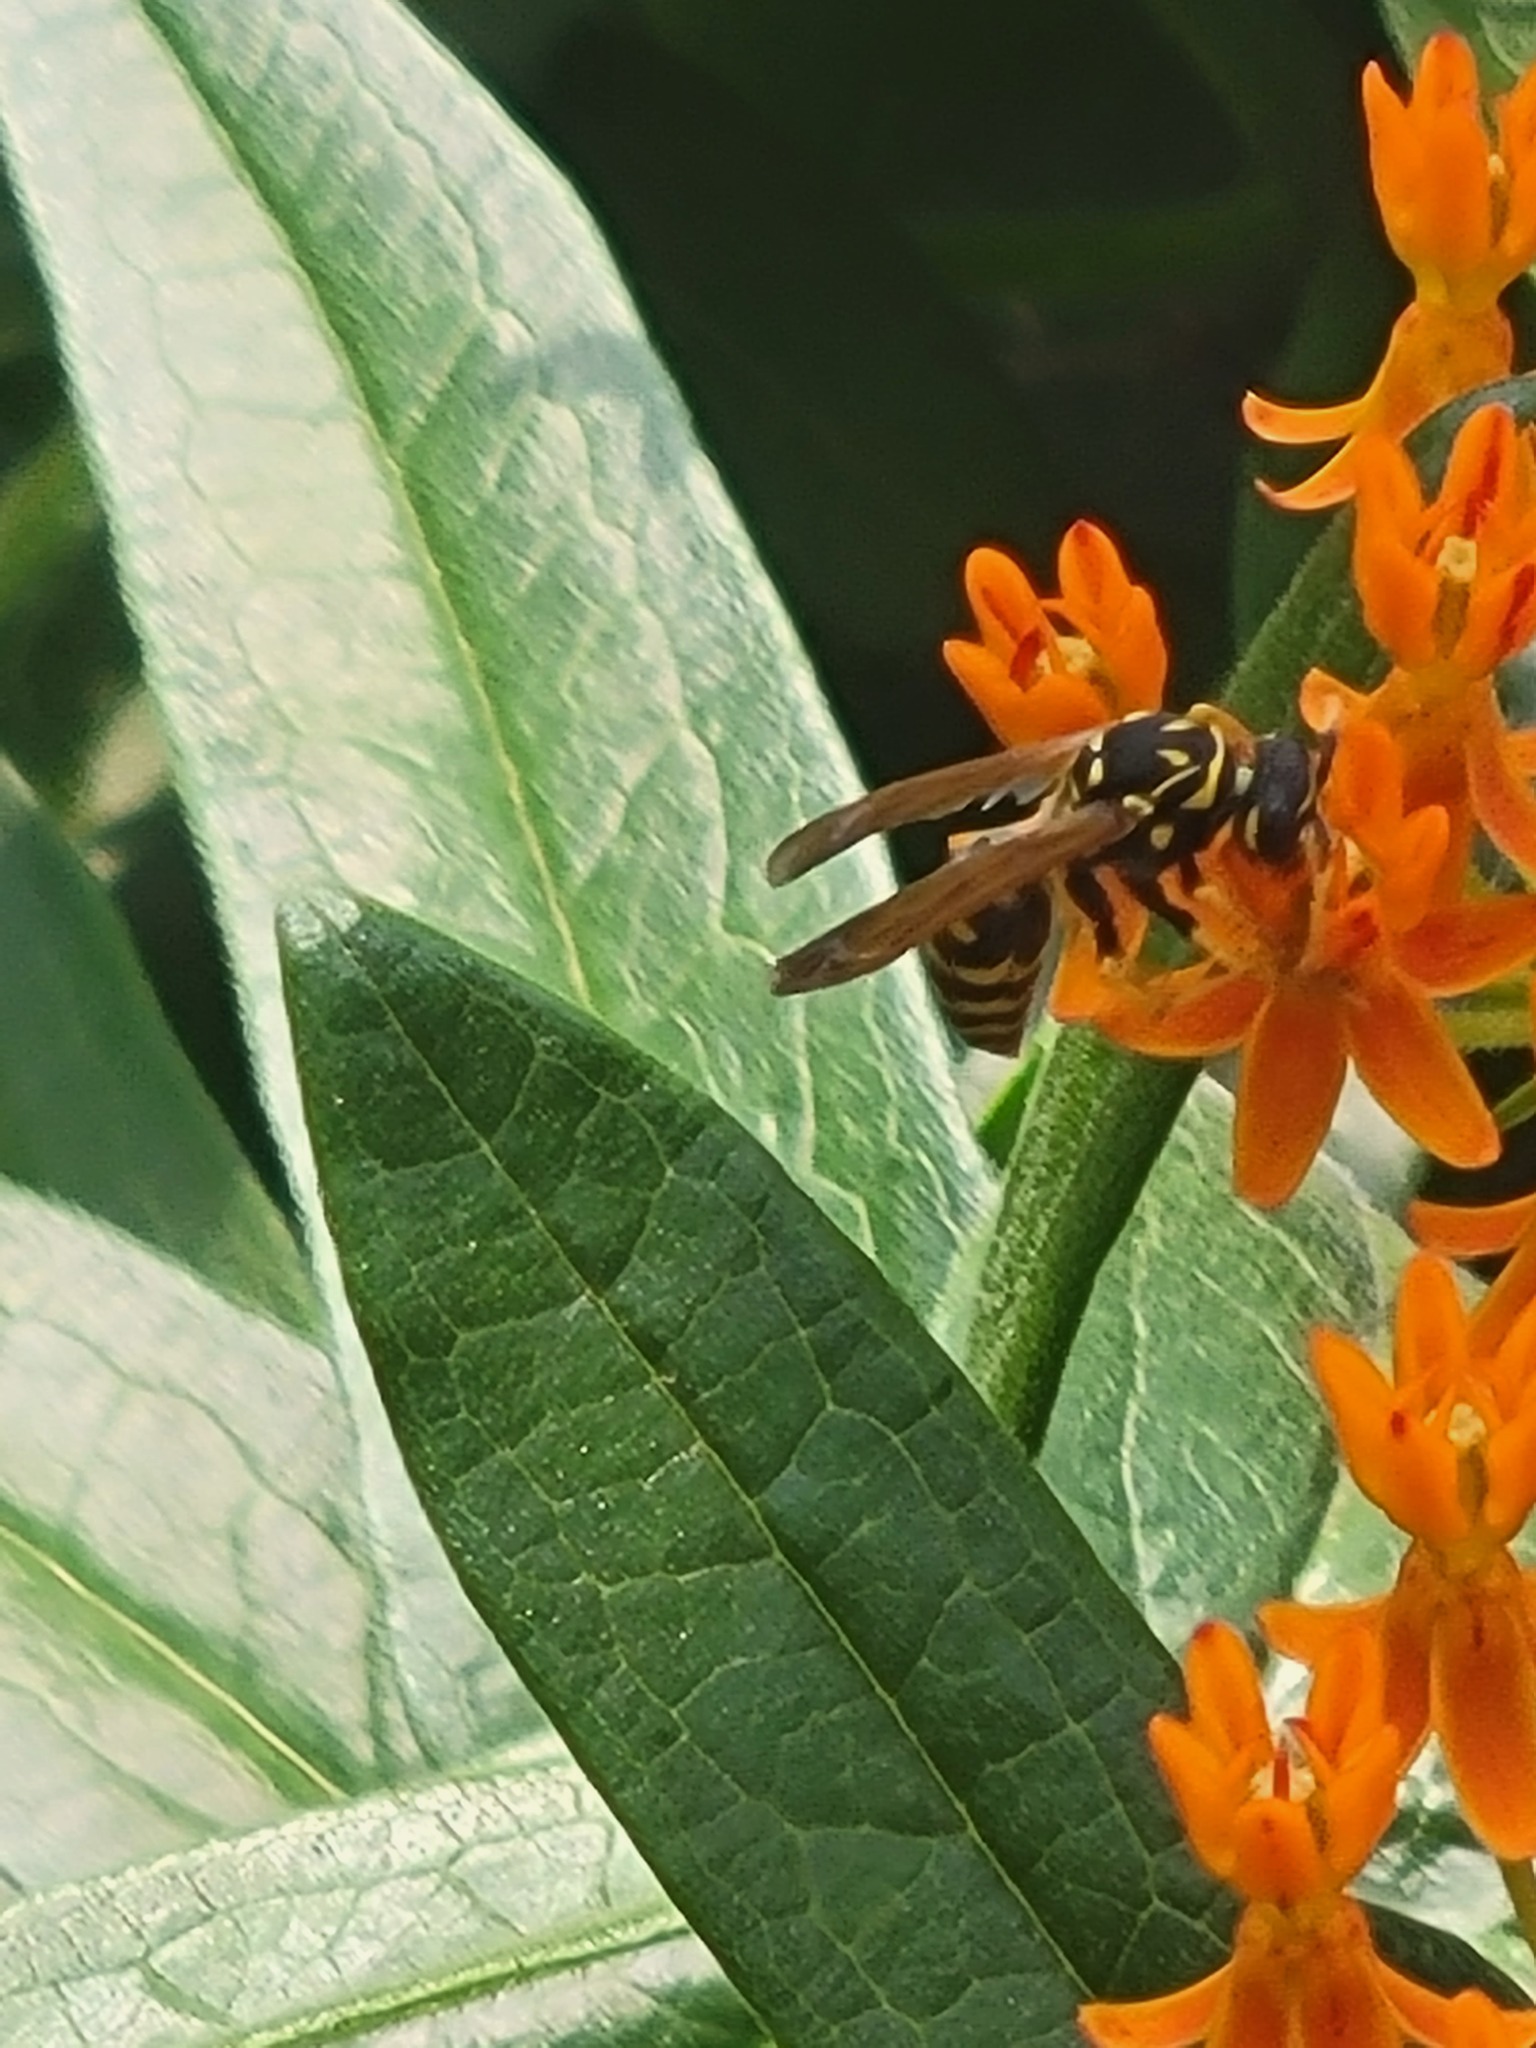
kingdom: Animalia
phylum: Arthropoda
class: Insecta
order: Hymenoptera
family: Eumenidae
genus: Polistes
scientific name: Polistes dominula
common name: Paper wasp
